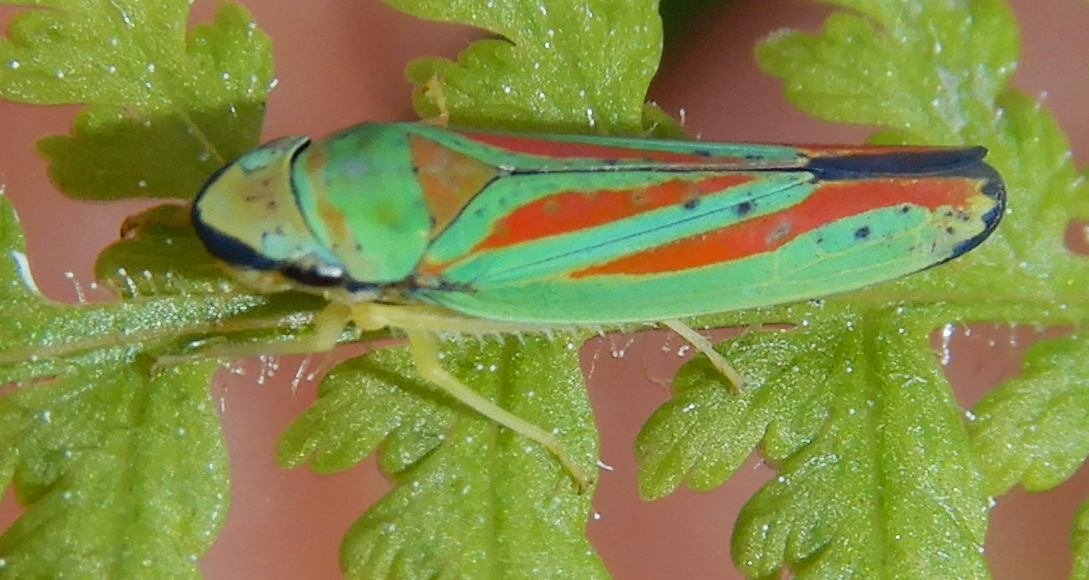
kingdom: Animalia
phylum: Arthropoda
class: Insecta
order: Hemiptera
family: Cicadellidae
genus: Graphocephala
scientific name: Graphocephala fennahi
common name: Rhododendron leafhopper
